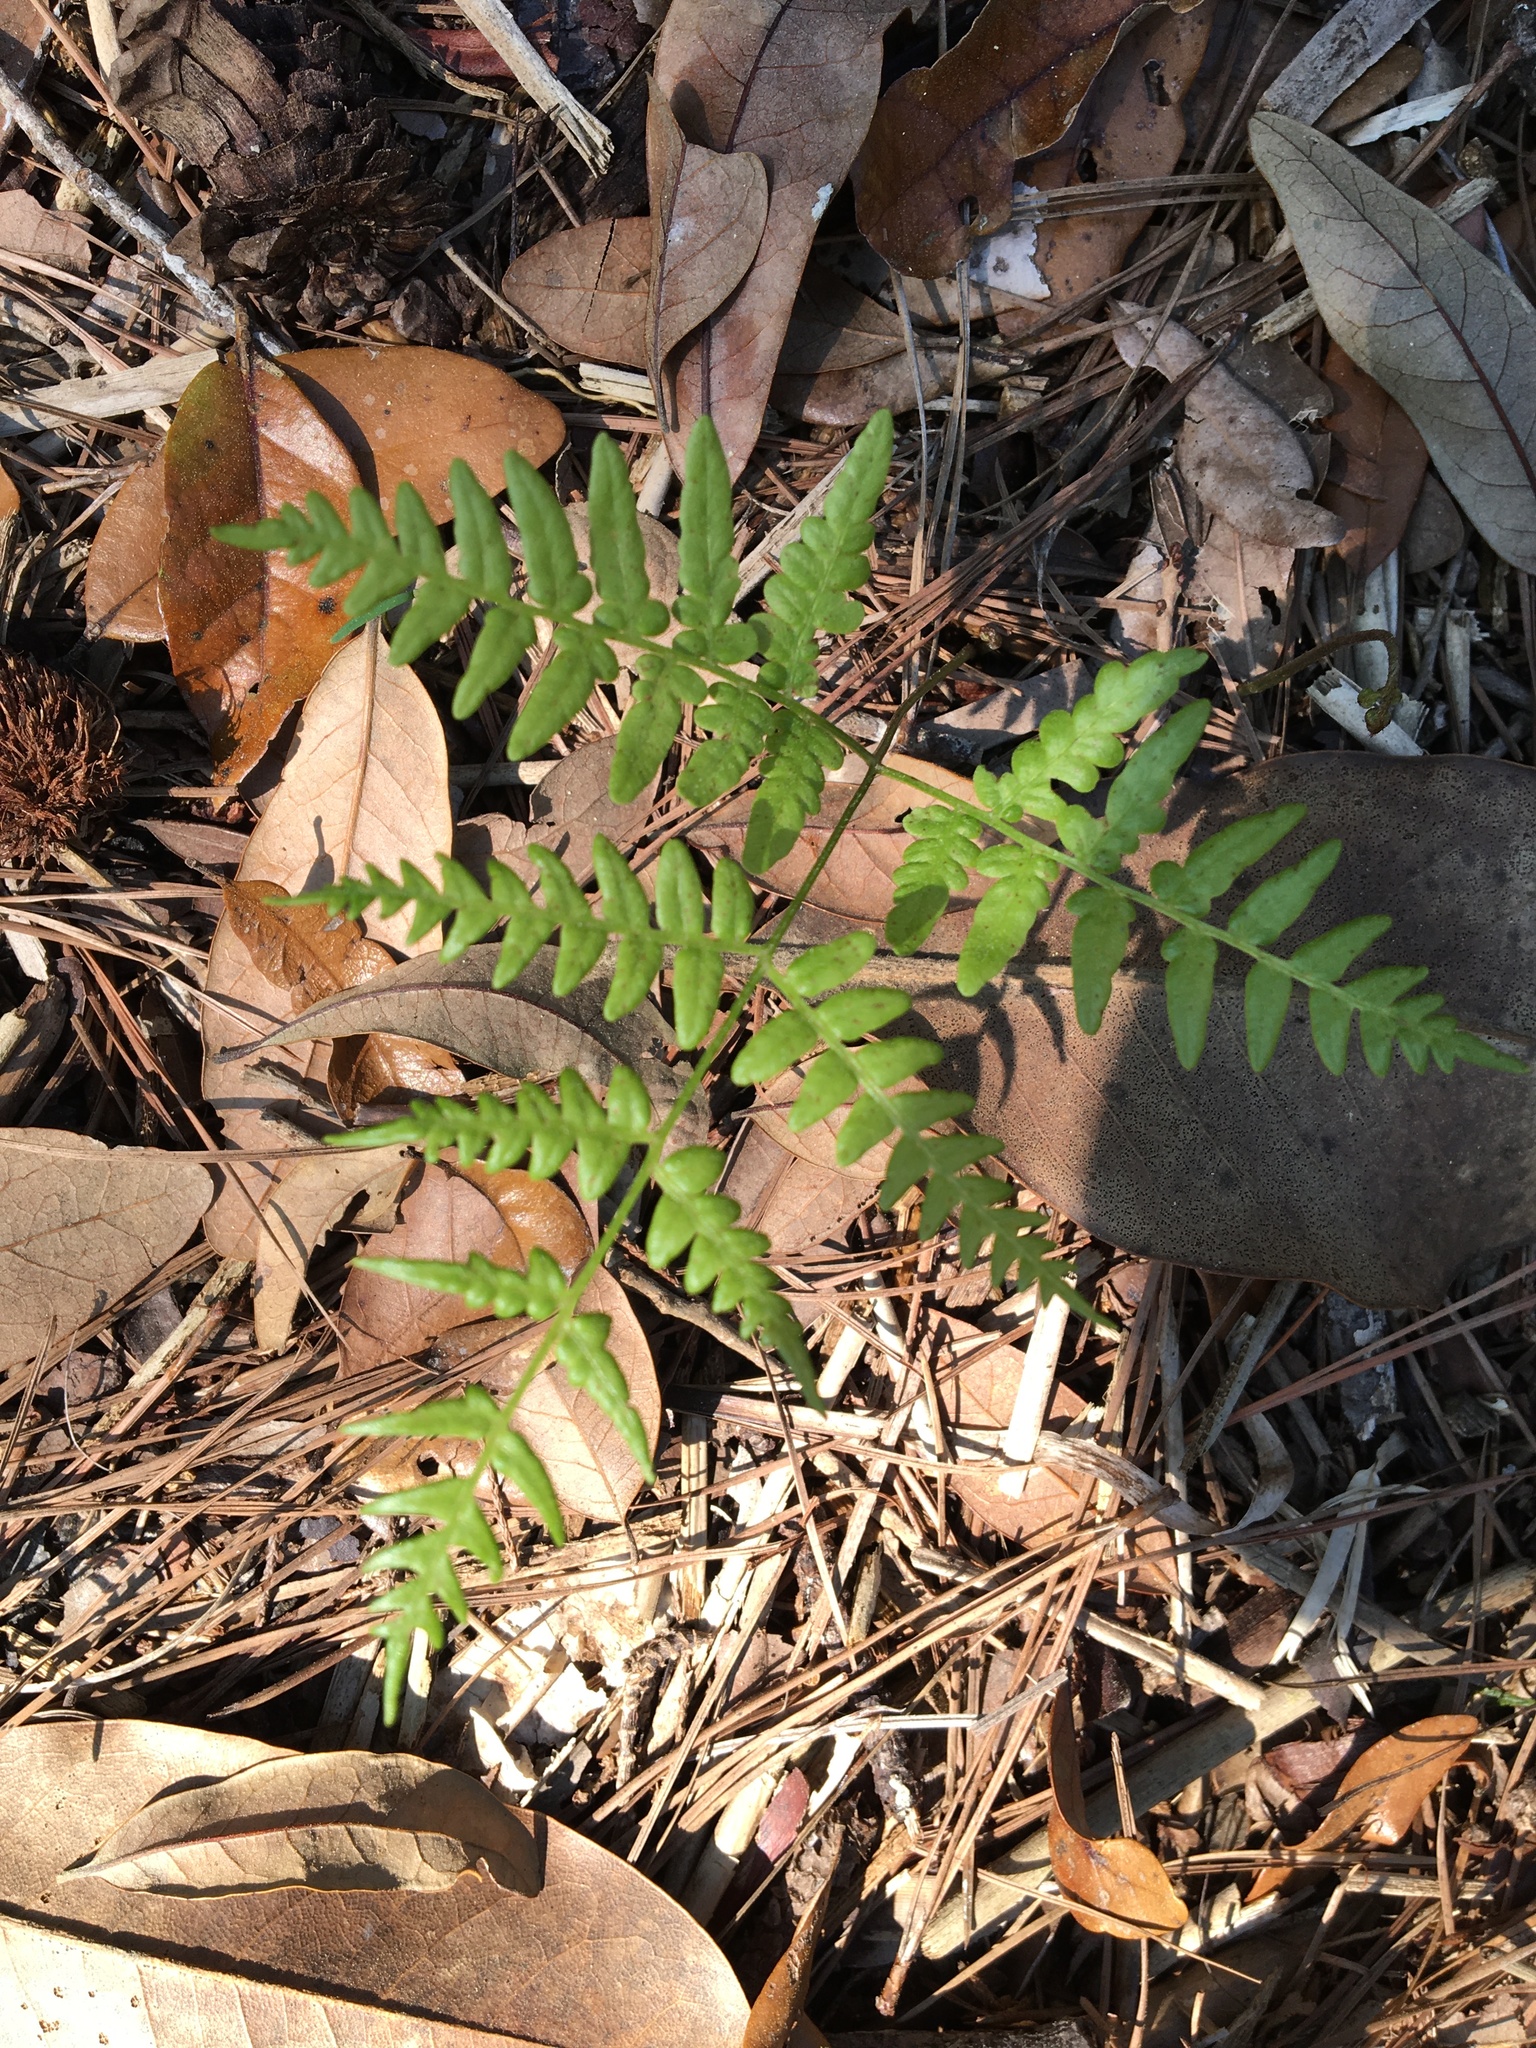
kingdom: Plantae
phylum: Tracheophyta
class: Polypodiopsida
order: Polypodiales
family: Dennstaedtiaceae
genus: Pteridium
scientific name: Pteridium
